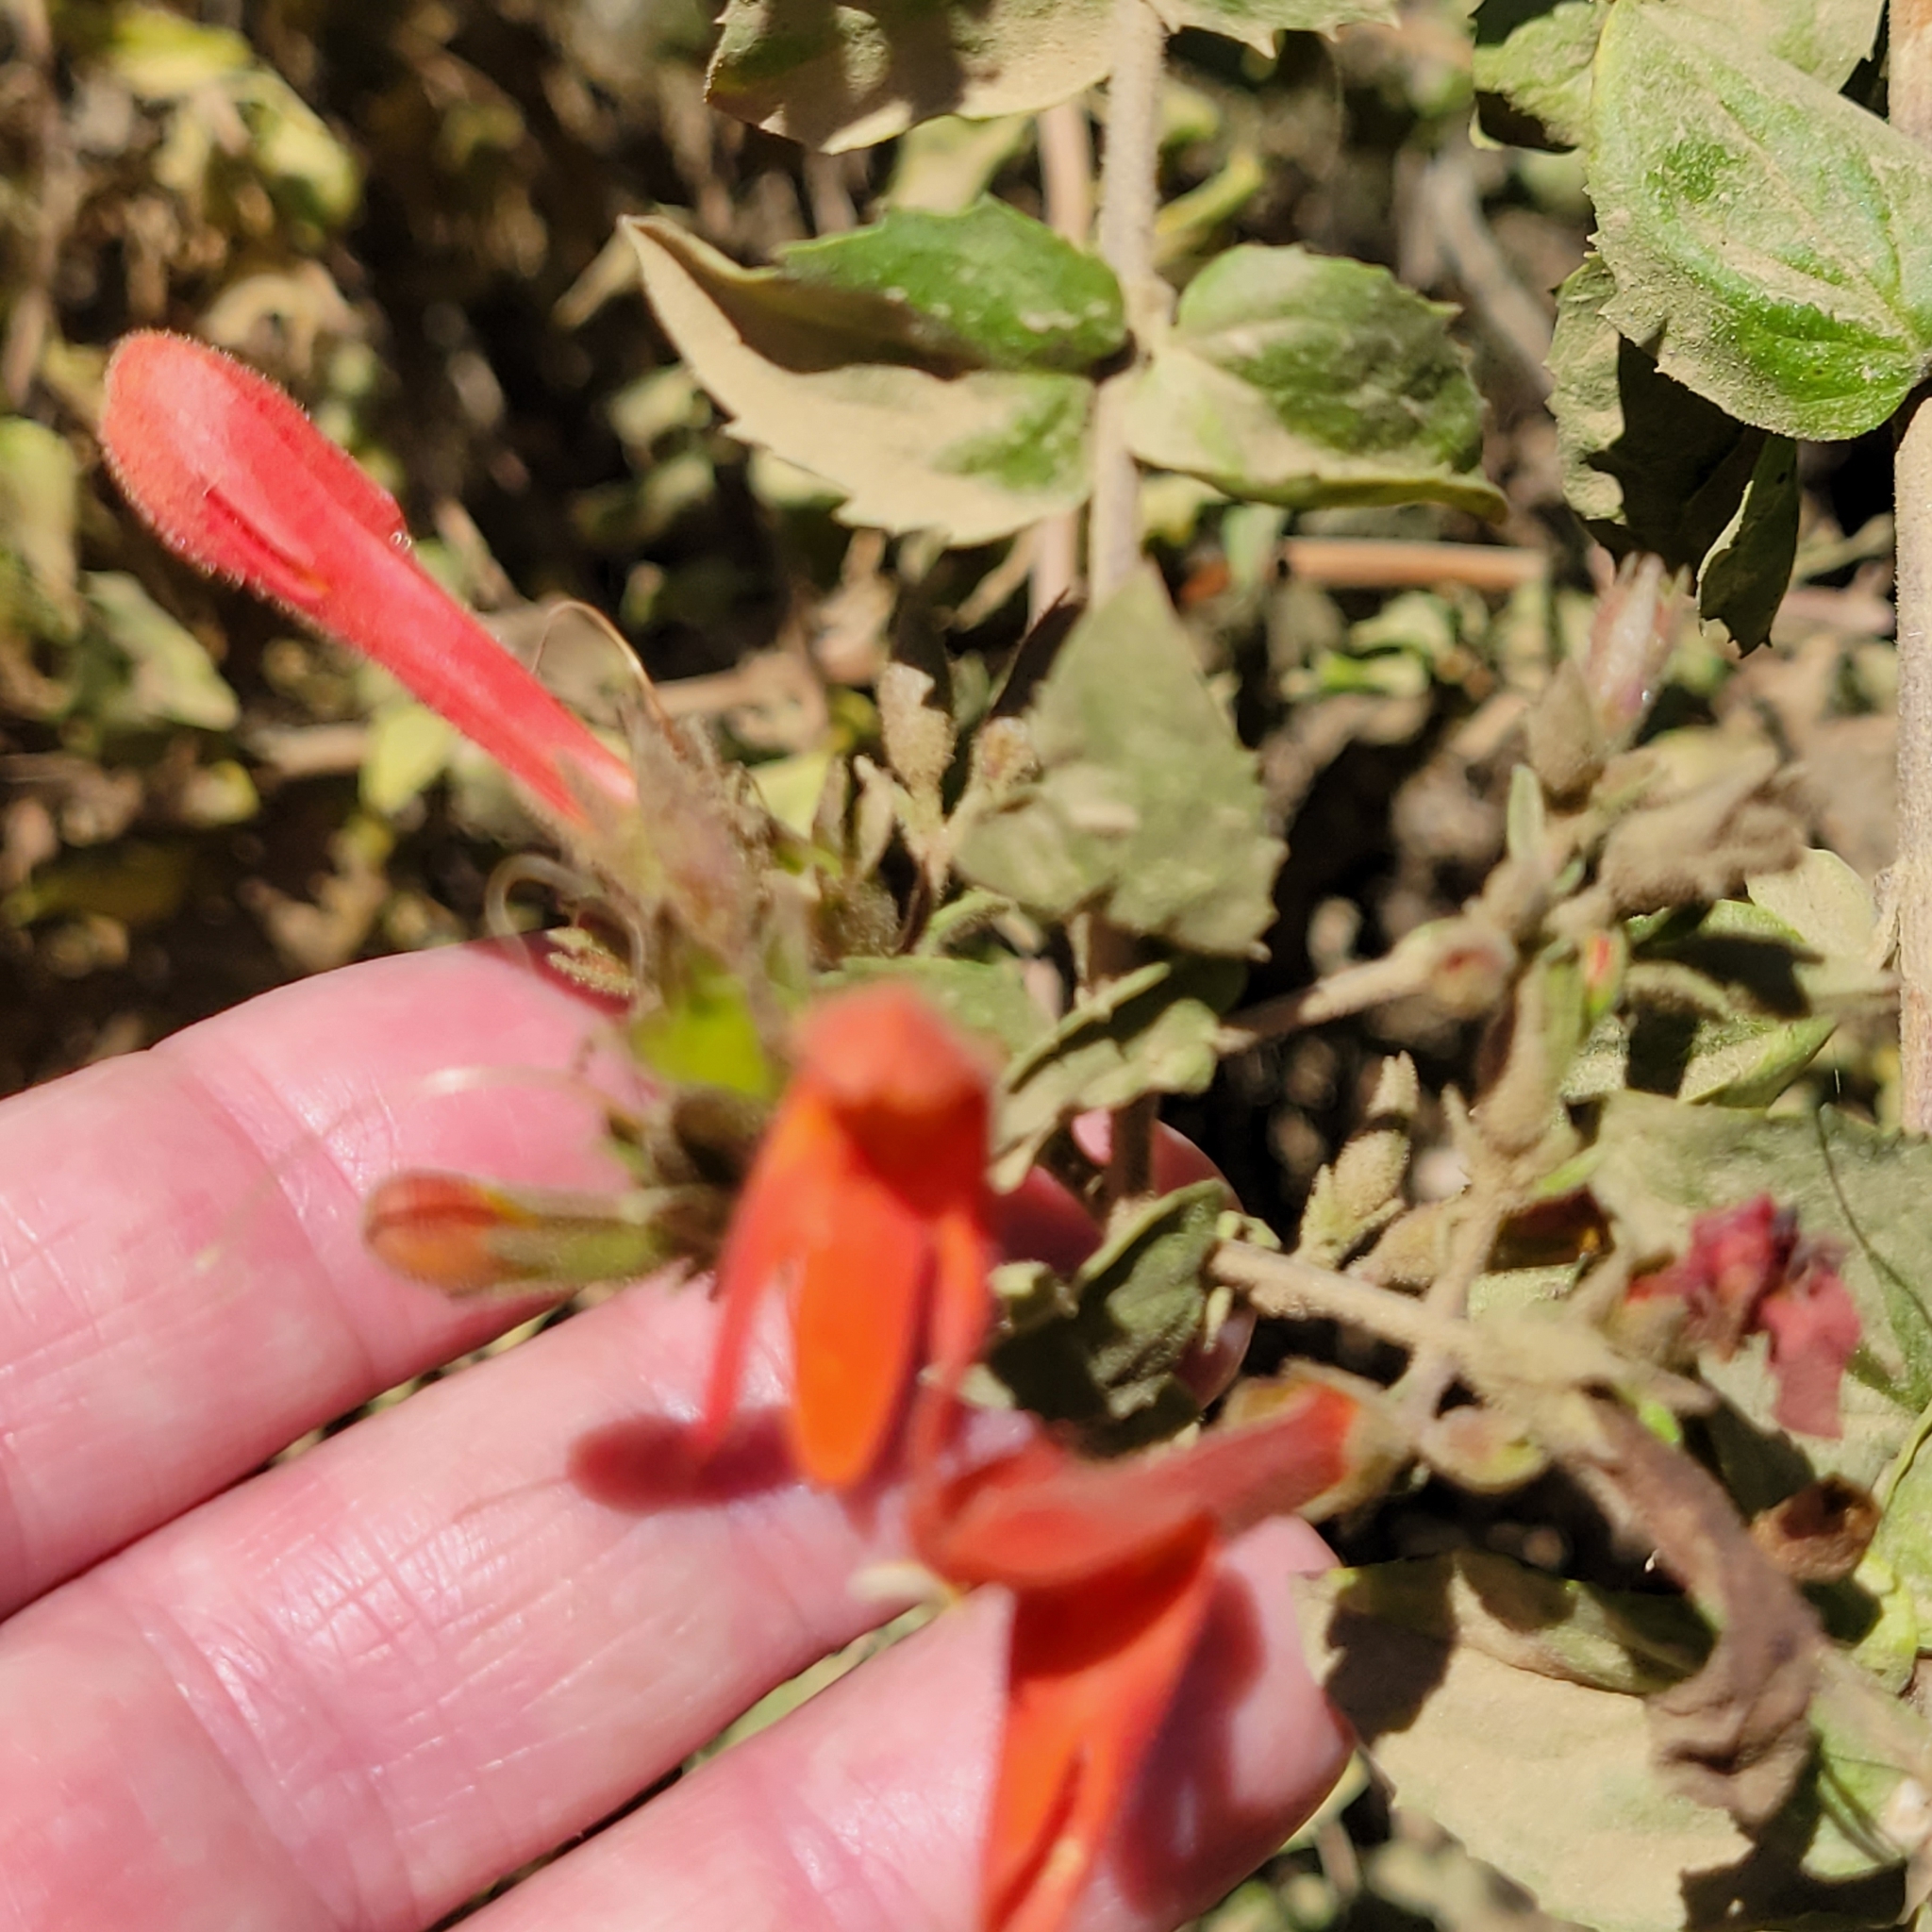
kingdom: Plantae
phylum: Tracheophyta
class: Magnoliopsida
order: Lamiales
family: Plantaginaceae
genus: Keckiella
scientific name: Keckiella cordifolia
